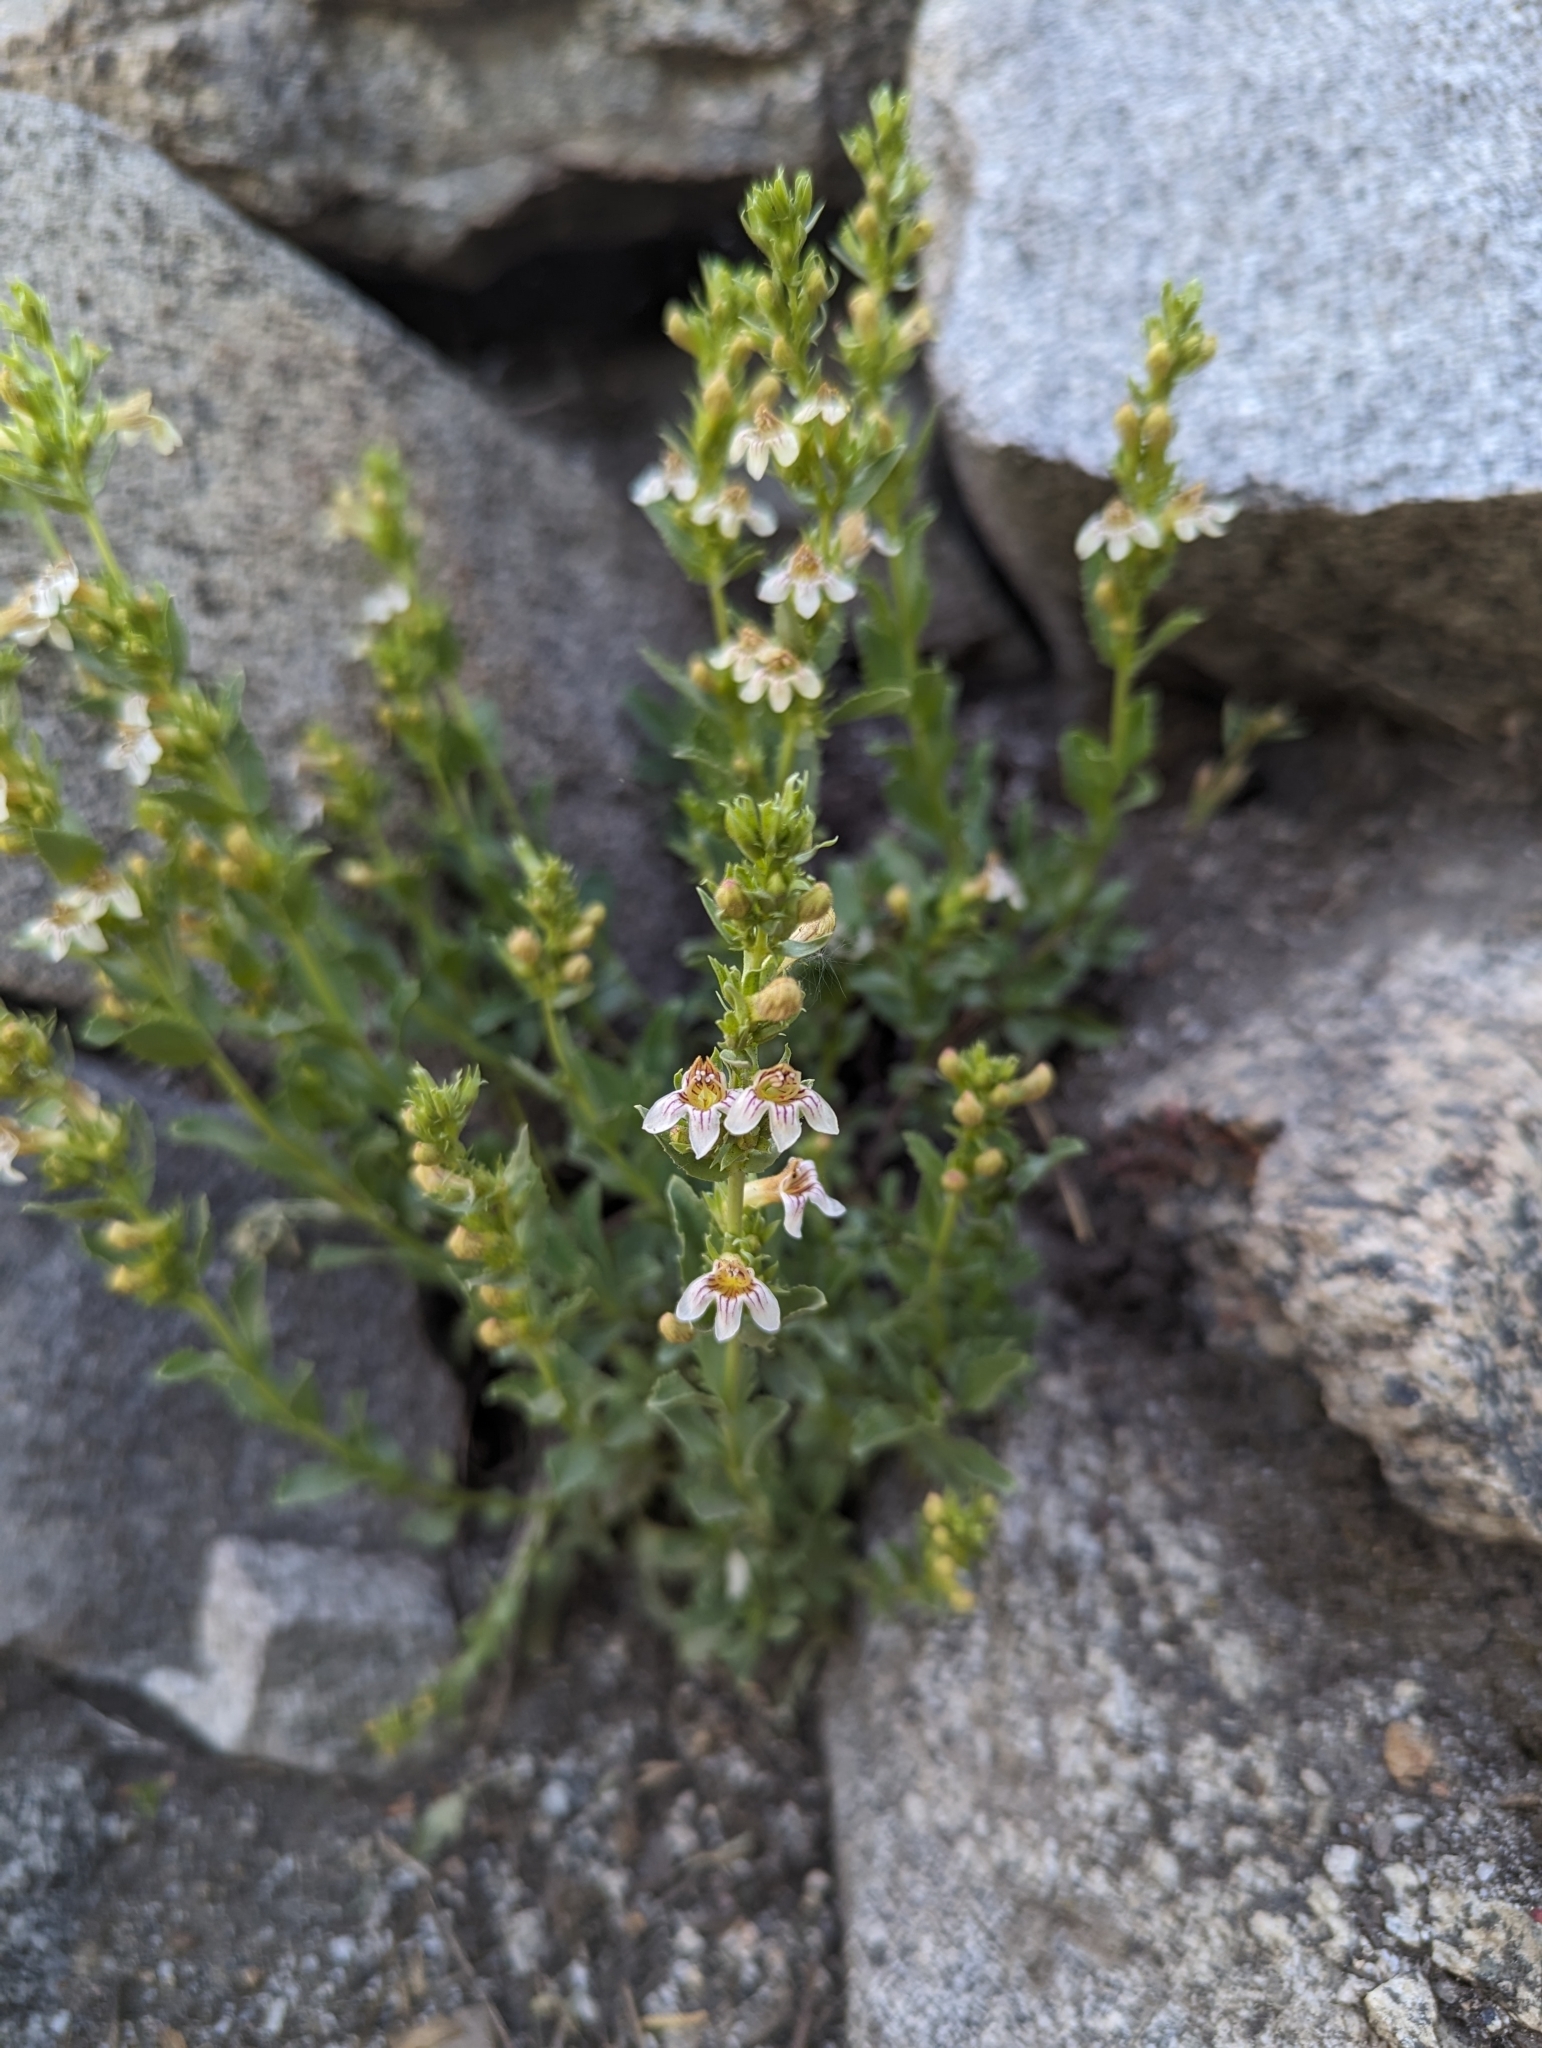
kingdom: Plantae
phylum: Tracheophyta
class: Magnoliopsida
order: Lamiales
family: Plantaginaceae
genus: Penstemon
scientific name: Penstemon deustus
